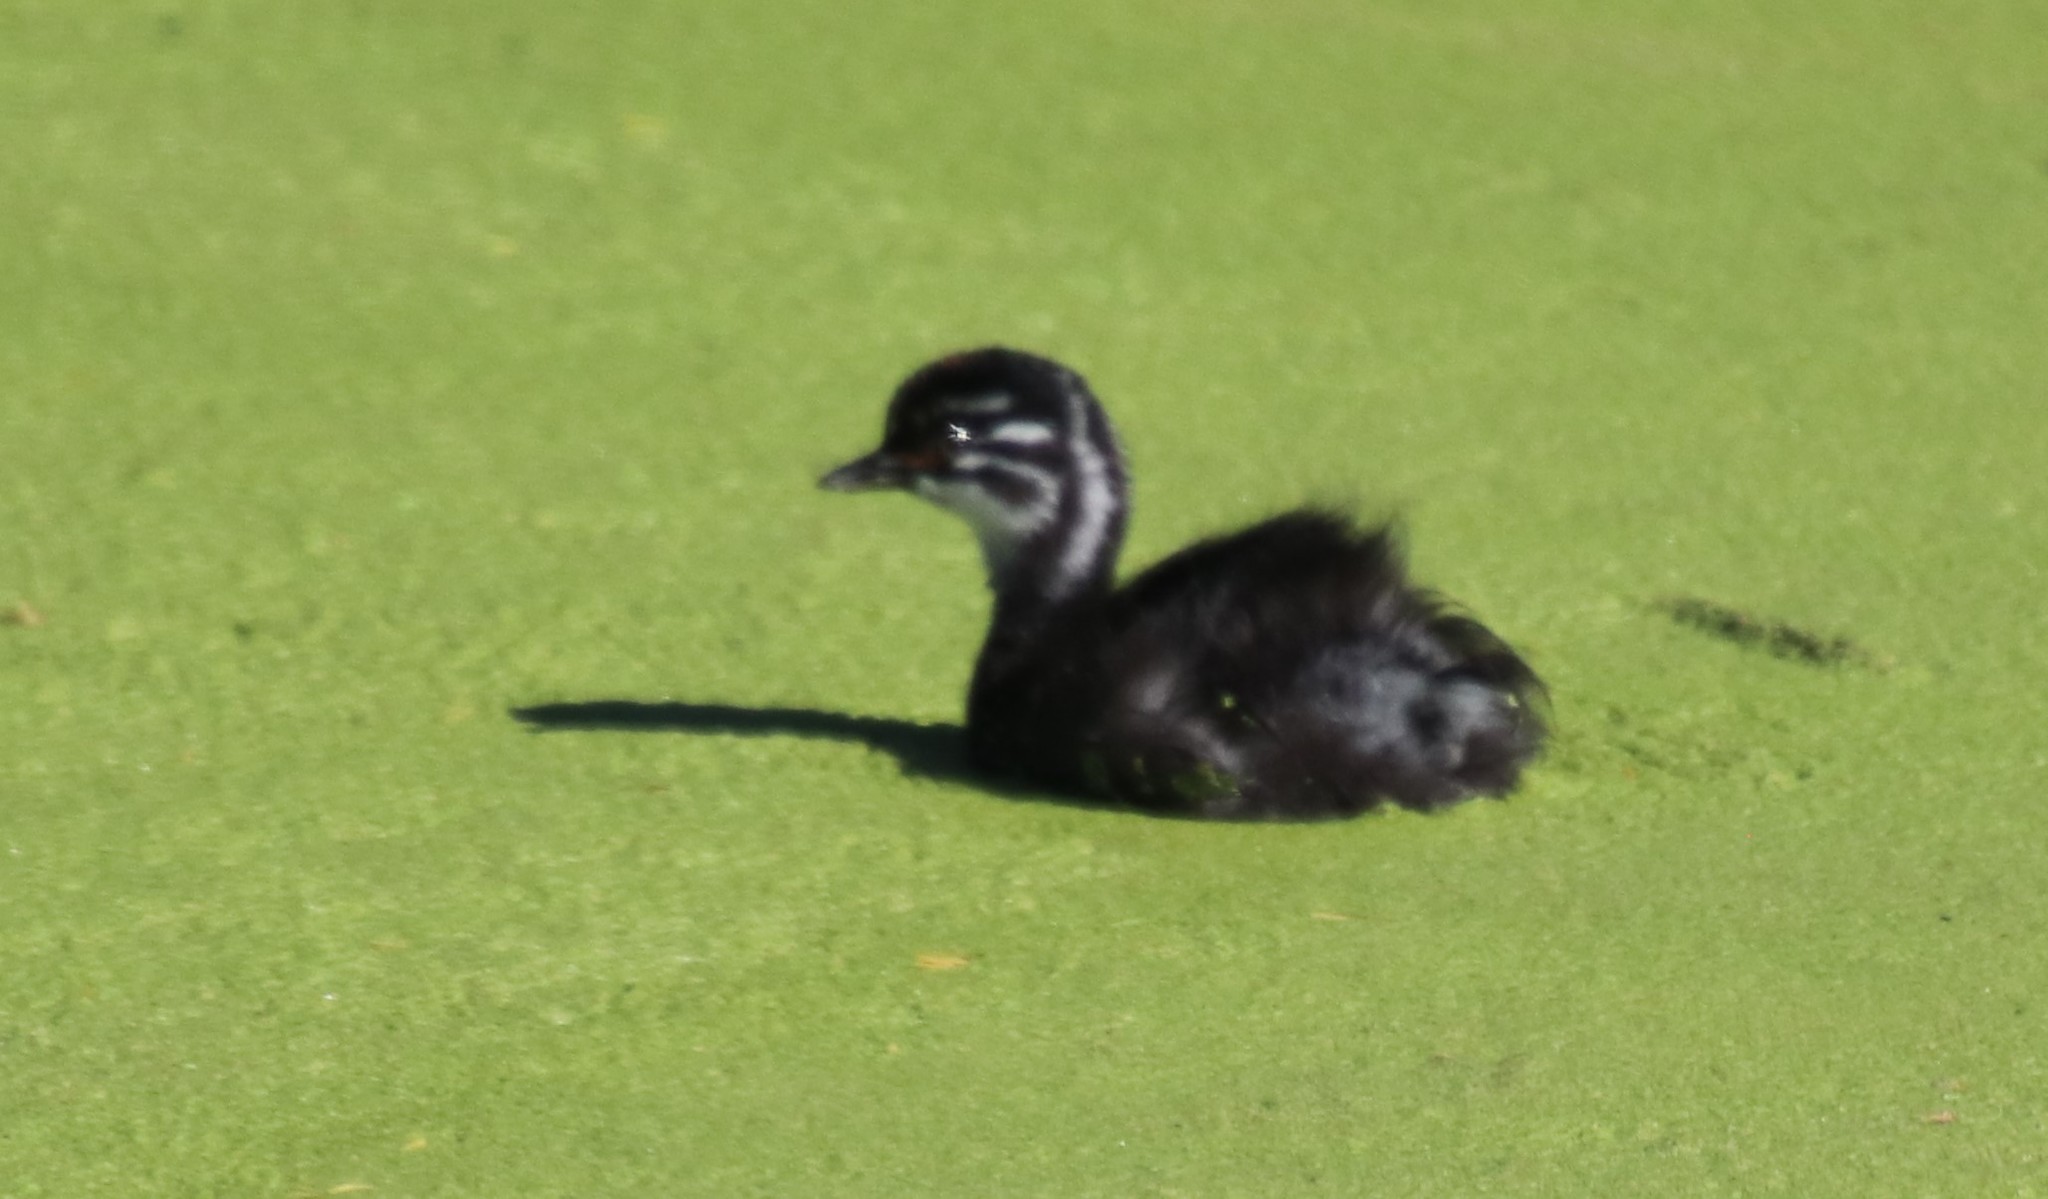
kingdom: Animalia
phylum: Chordata
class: Aves
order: Podicipediformes
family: Podicipedidae
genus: Tachybaptus
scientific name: Tachybaptus dominicus
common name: Least grebe
